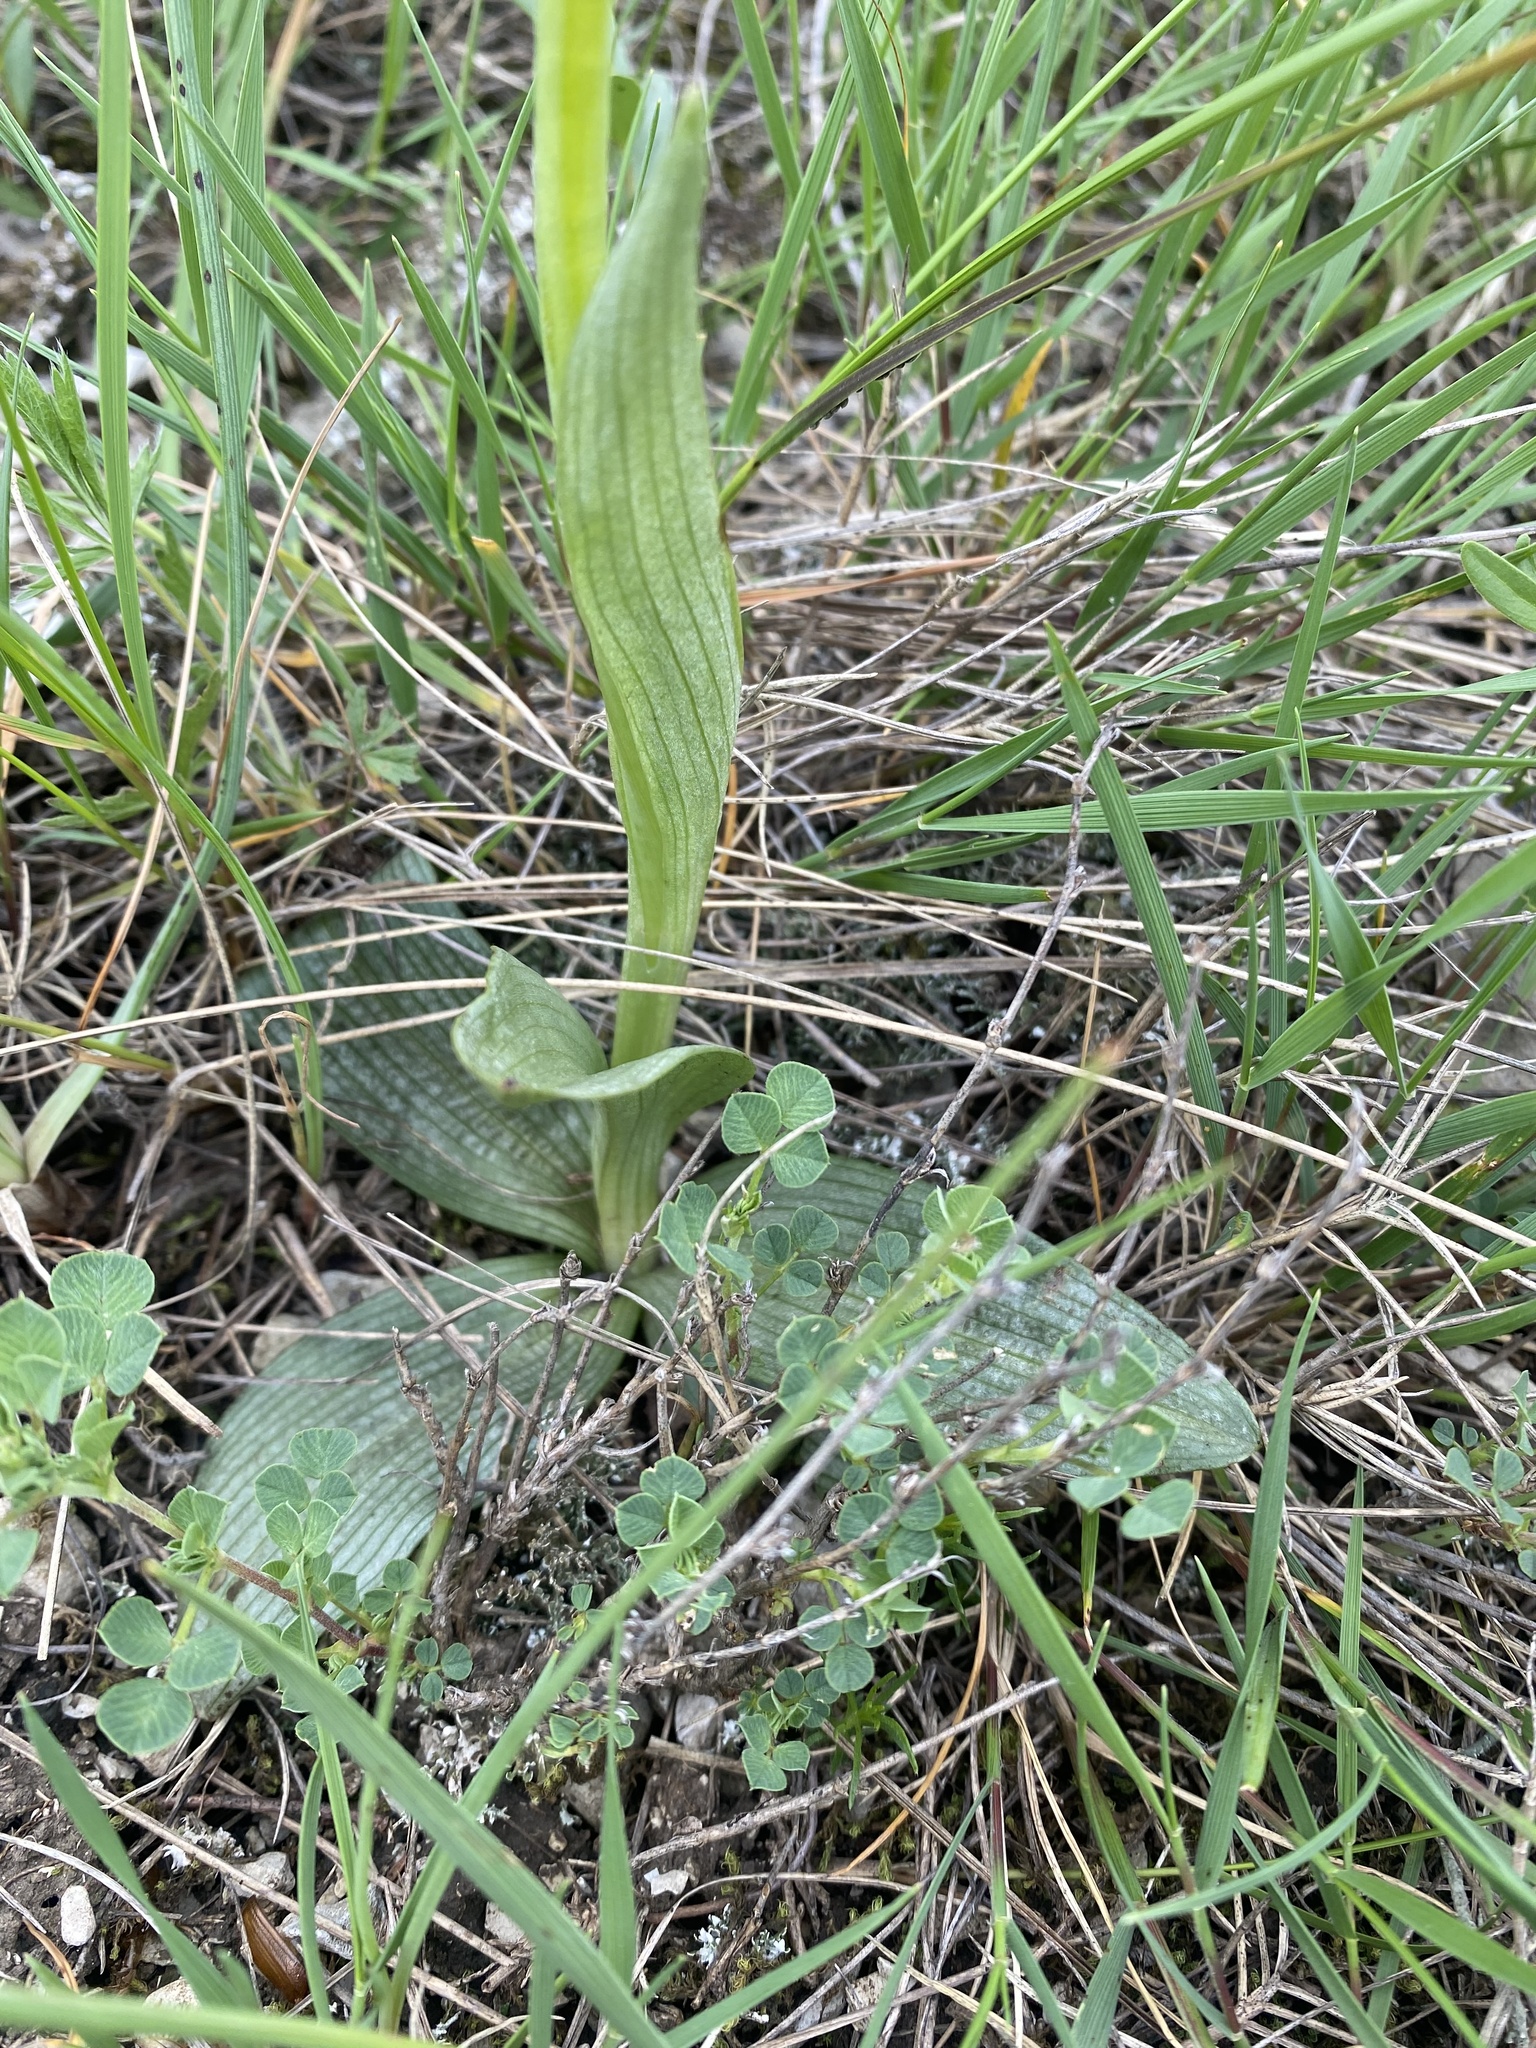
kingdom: Plantae
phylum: Tracheophyta
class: Liliopsida
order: Asparagales
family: Orchidaceae
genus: Ophrys
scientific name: Ophrys
